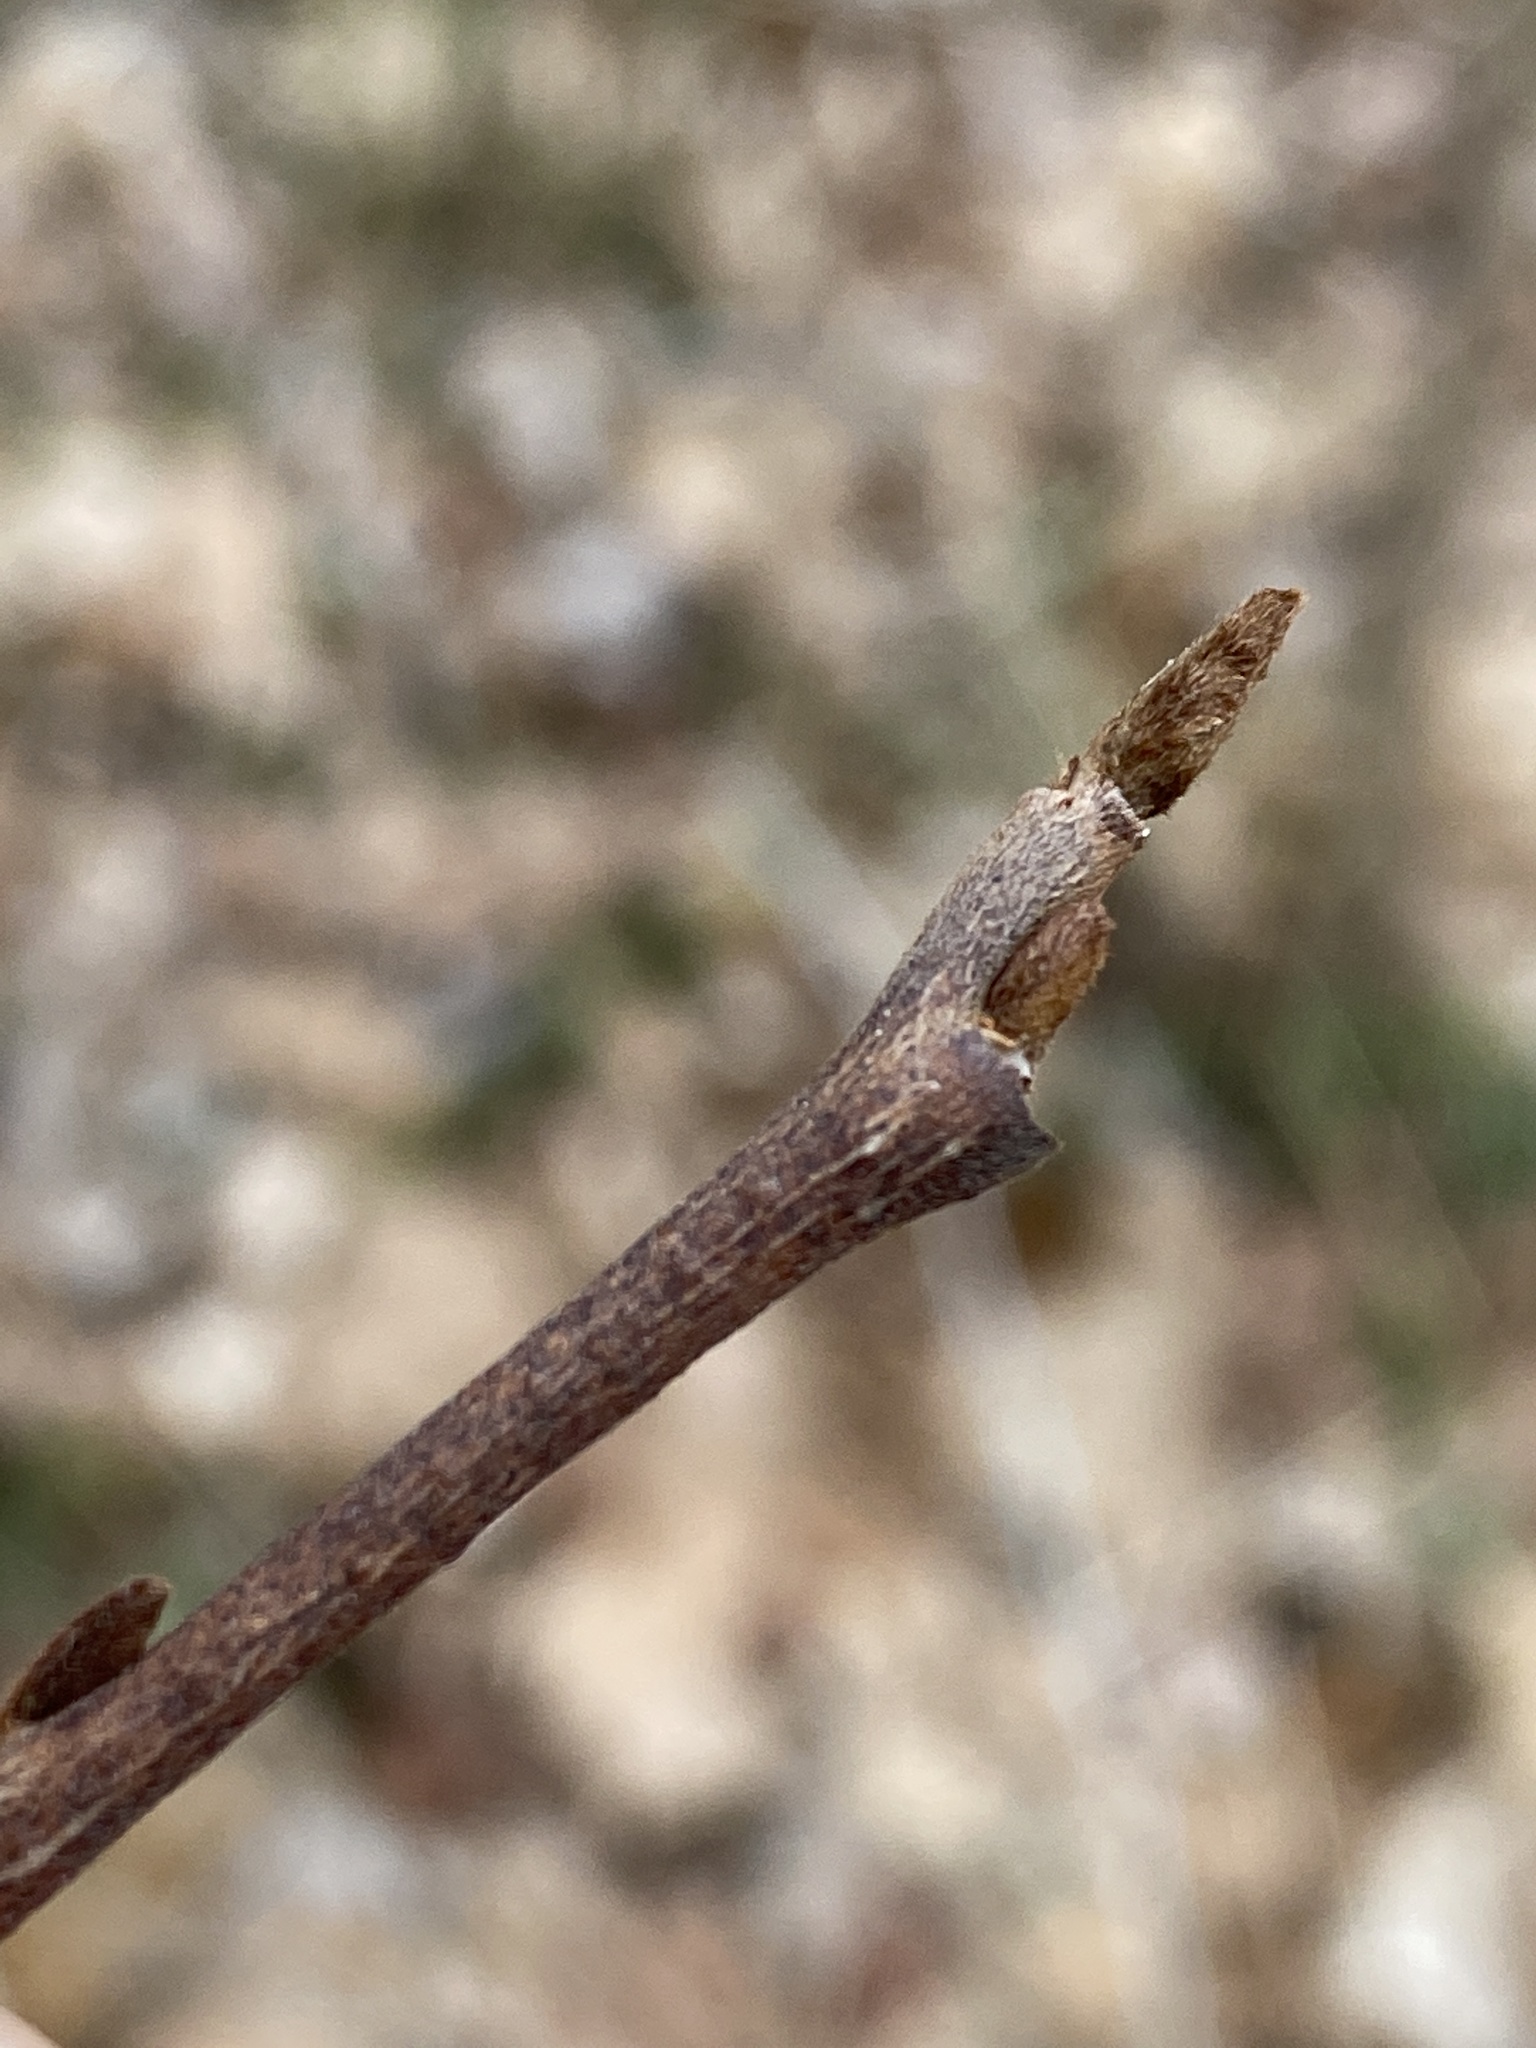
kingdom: Plantae
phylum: Tracheophyta
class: Magnoliopsida
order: Magnoliales
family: Annonaceae
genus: Asimina
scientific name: Asimina triloba
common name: Dog-banana
